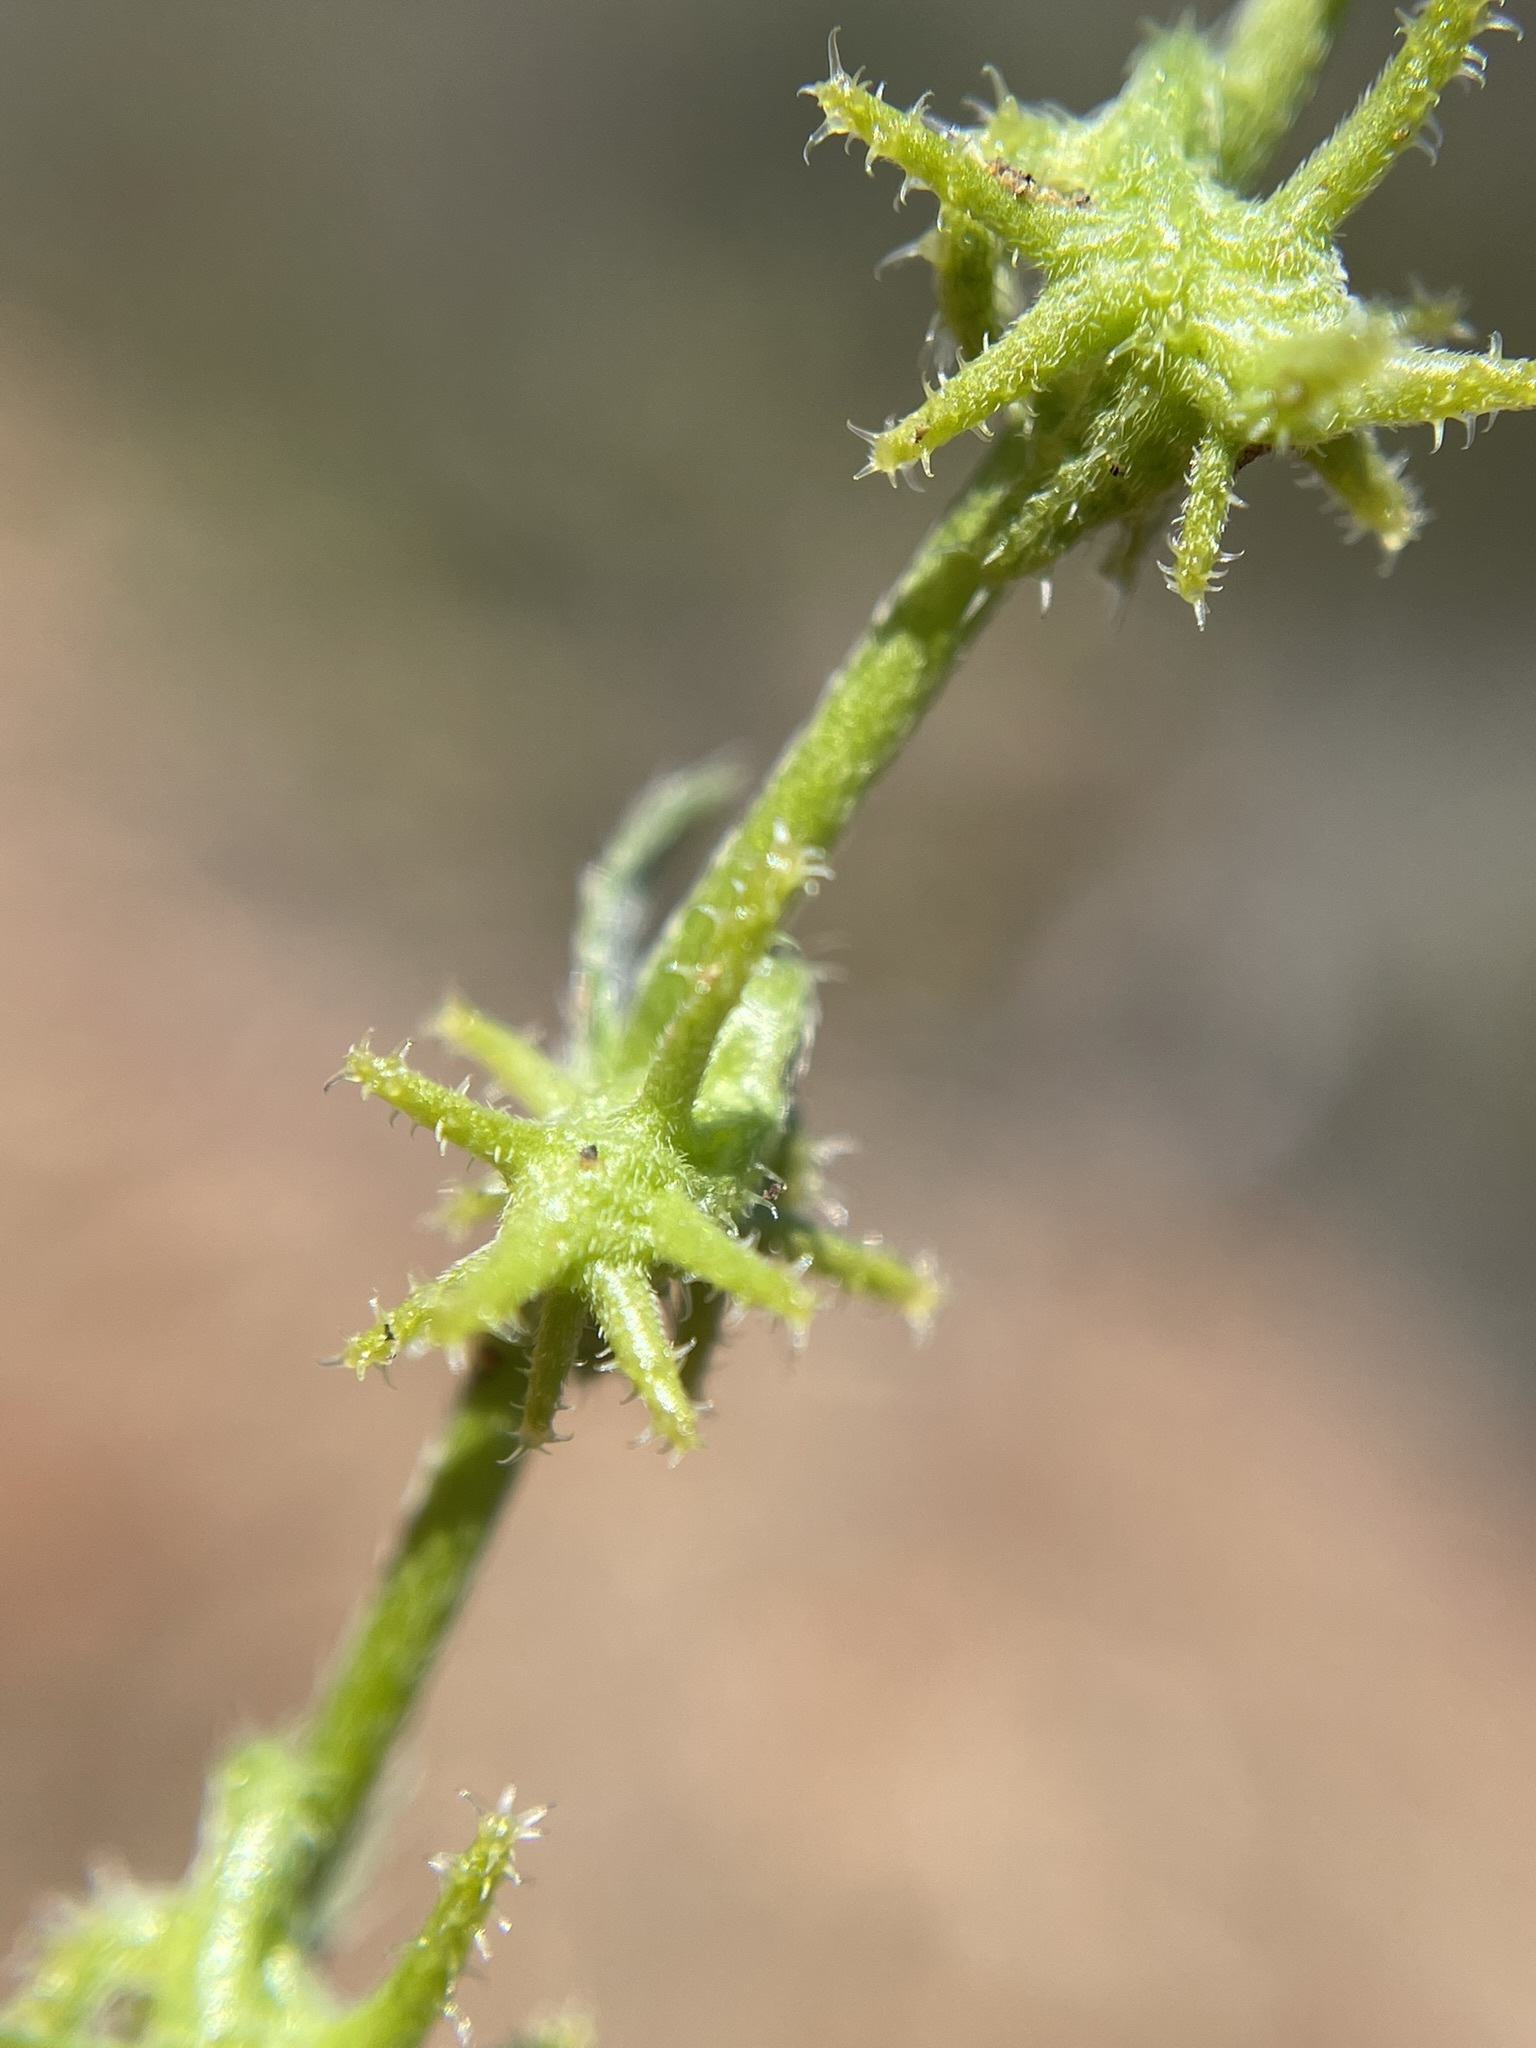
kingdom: Plantae
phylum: Tracheophyta
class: Magnoliopsida
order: Boraginales
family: Boraginaceae
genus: Harpagonella
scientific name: Harpagonella palmeri
